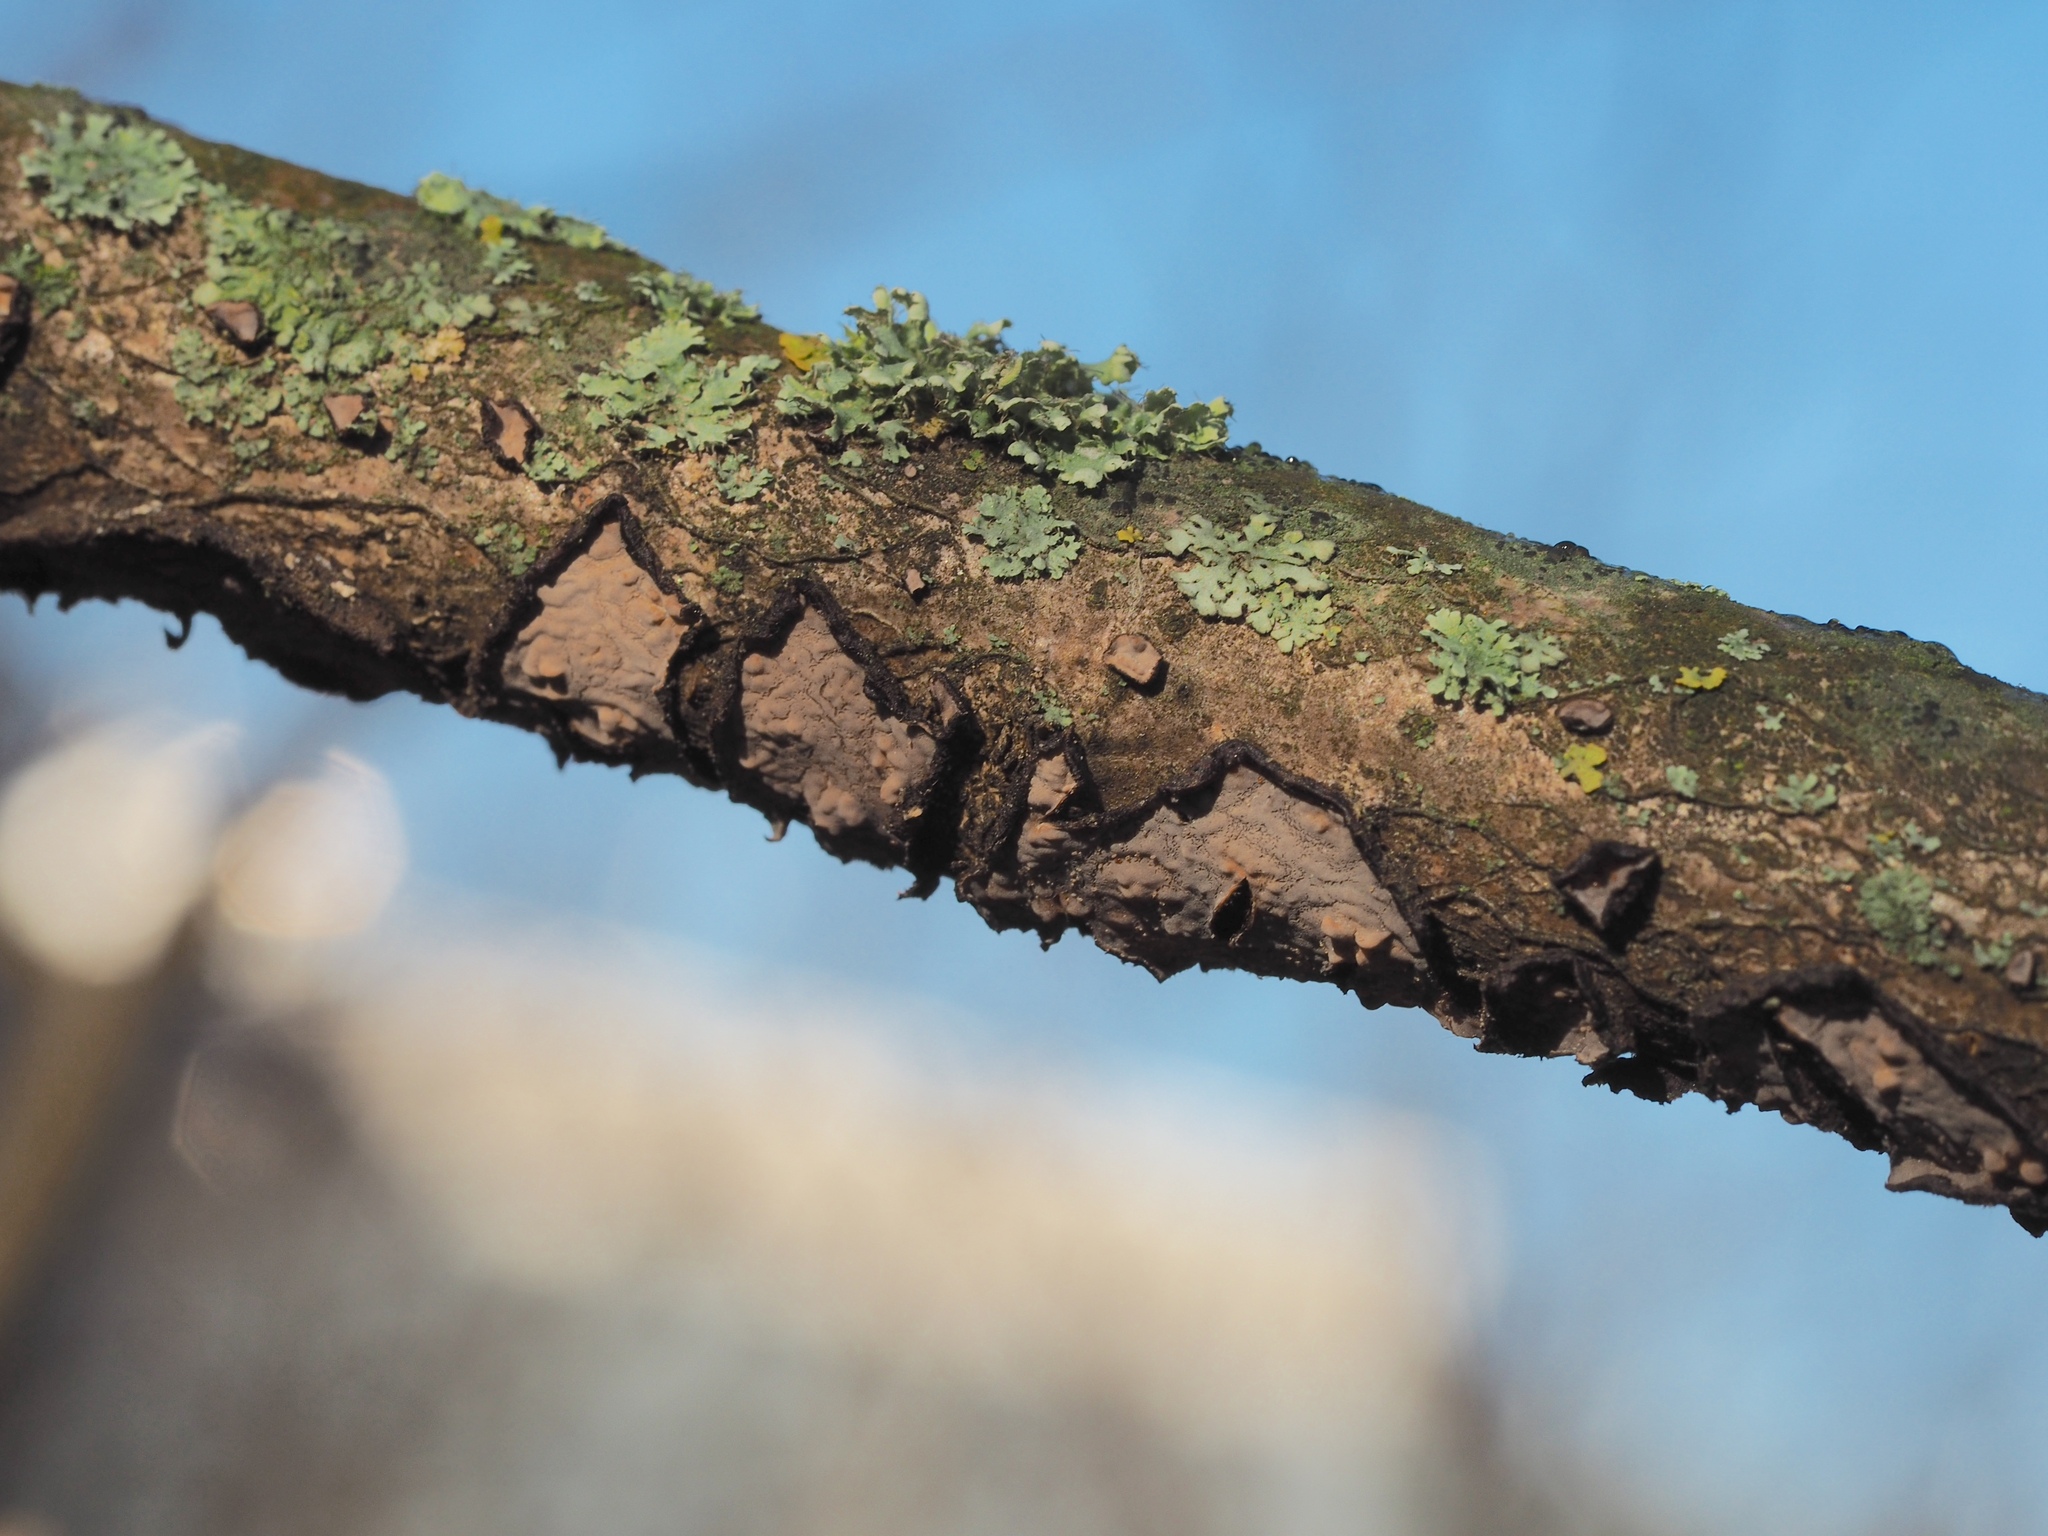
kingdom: Fungi
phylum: Basidiomycota
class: Agaricomycetes
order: Russulales
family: Peniophoraceae
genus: Peniophora
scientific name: Peniophora quercina
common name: Oak crust
